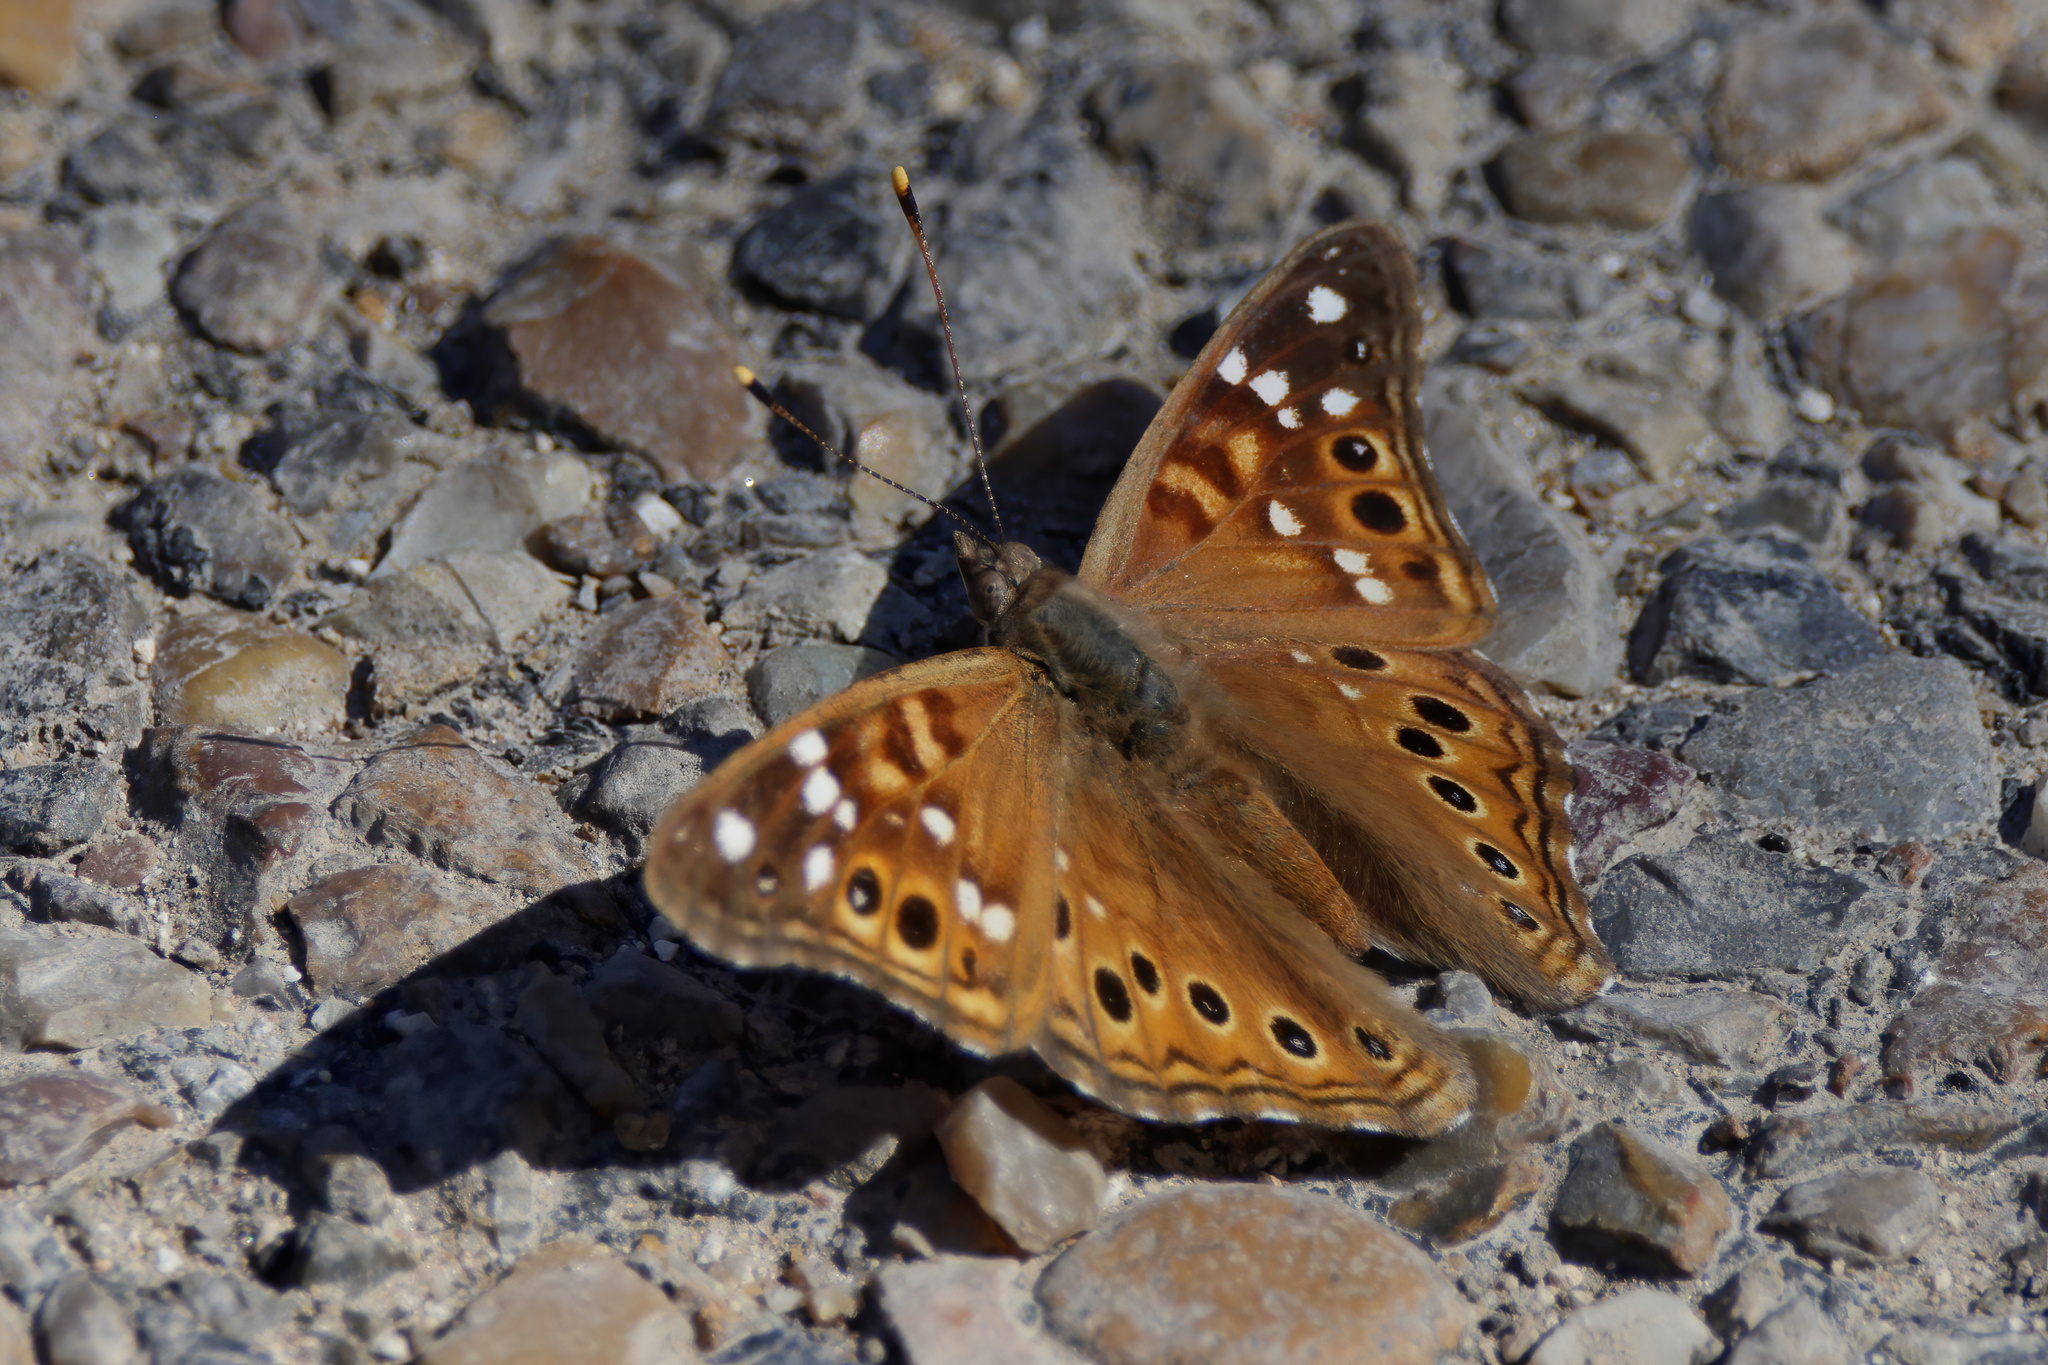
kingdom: Animalia
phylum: Arthropoda
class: Insecta
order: Lepidoptera
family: Nymphalidae
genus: Asterocampa
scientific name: Asterocampa leilia
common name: Empress leilia
